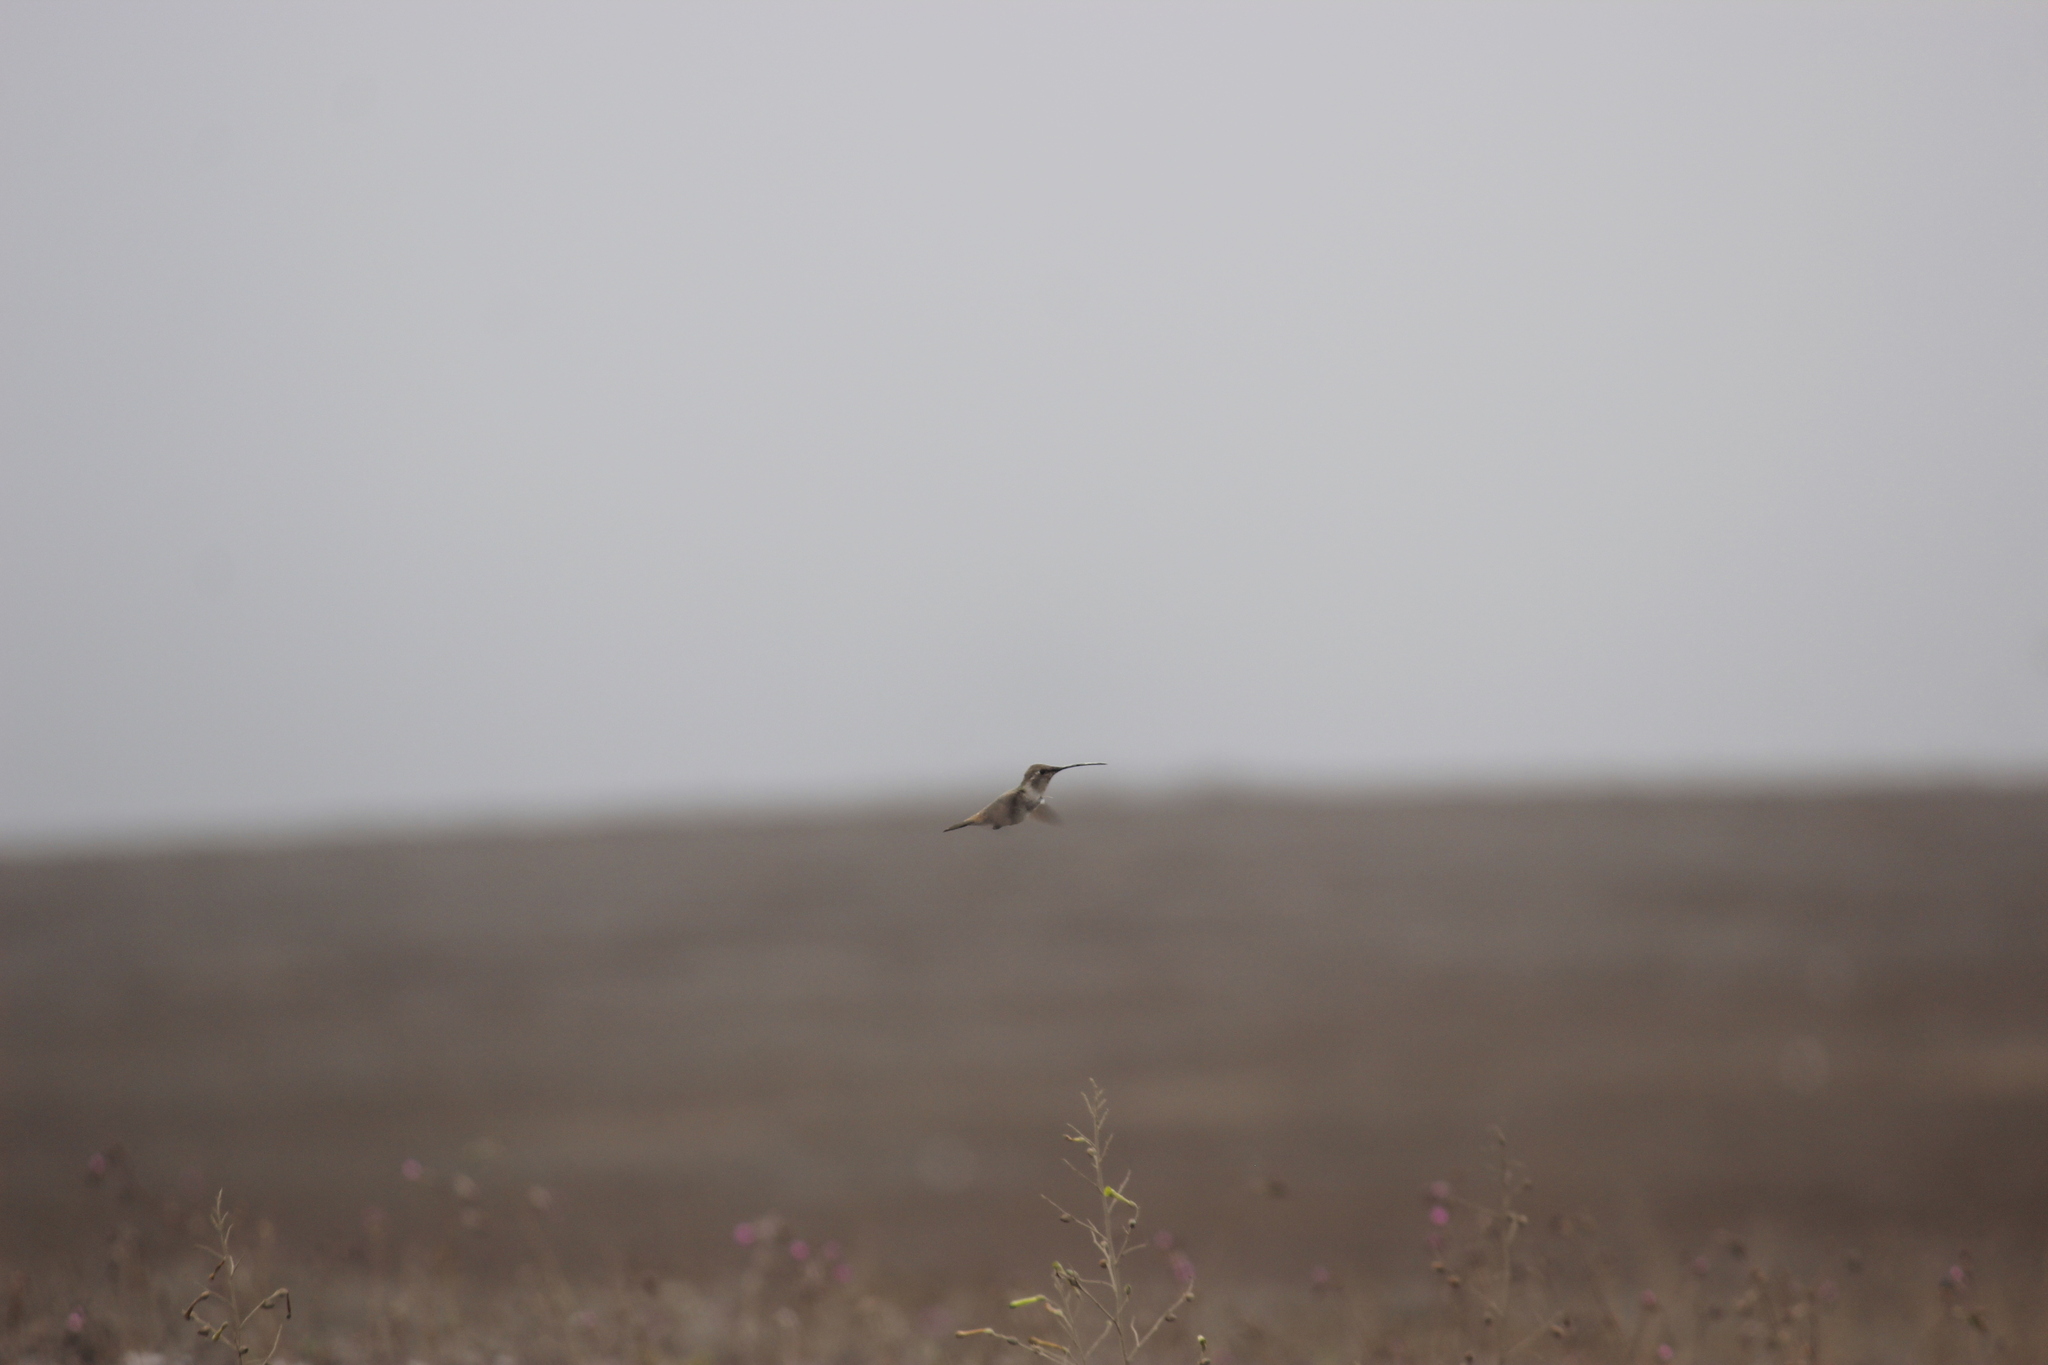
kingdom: Animalia
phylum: Chordata
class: Aves
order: Apodiformes
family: Trochilidae
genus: Rhodopis
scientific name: Rhodopis vesper
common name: Oasis hummingbird
